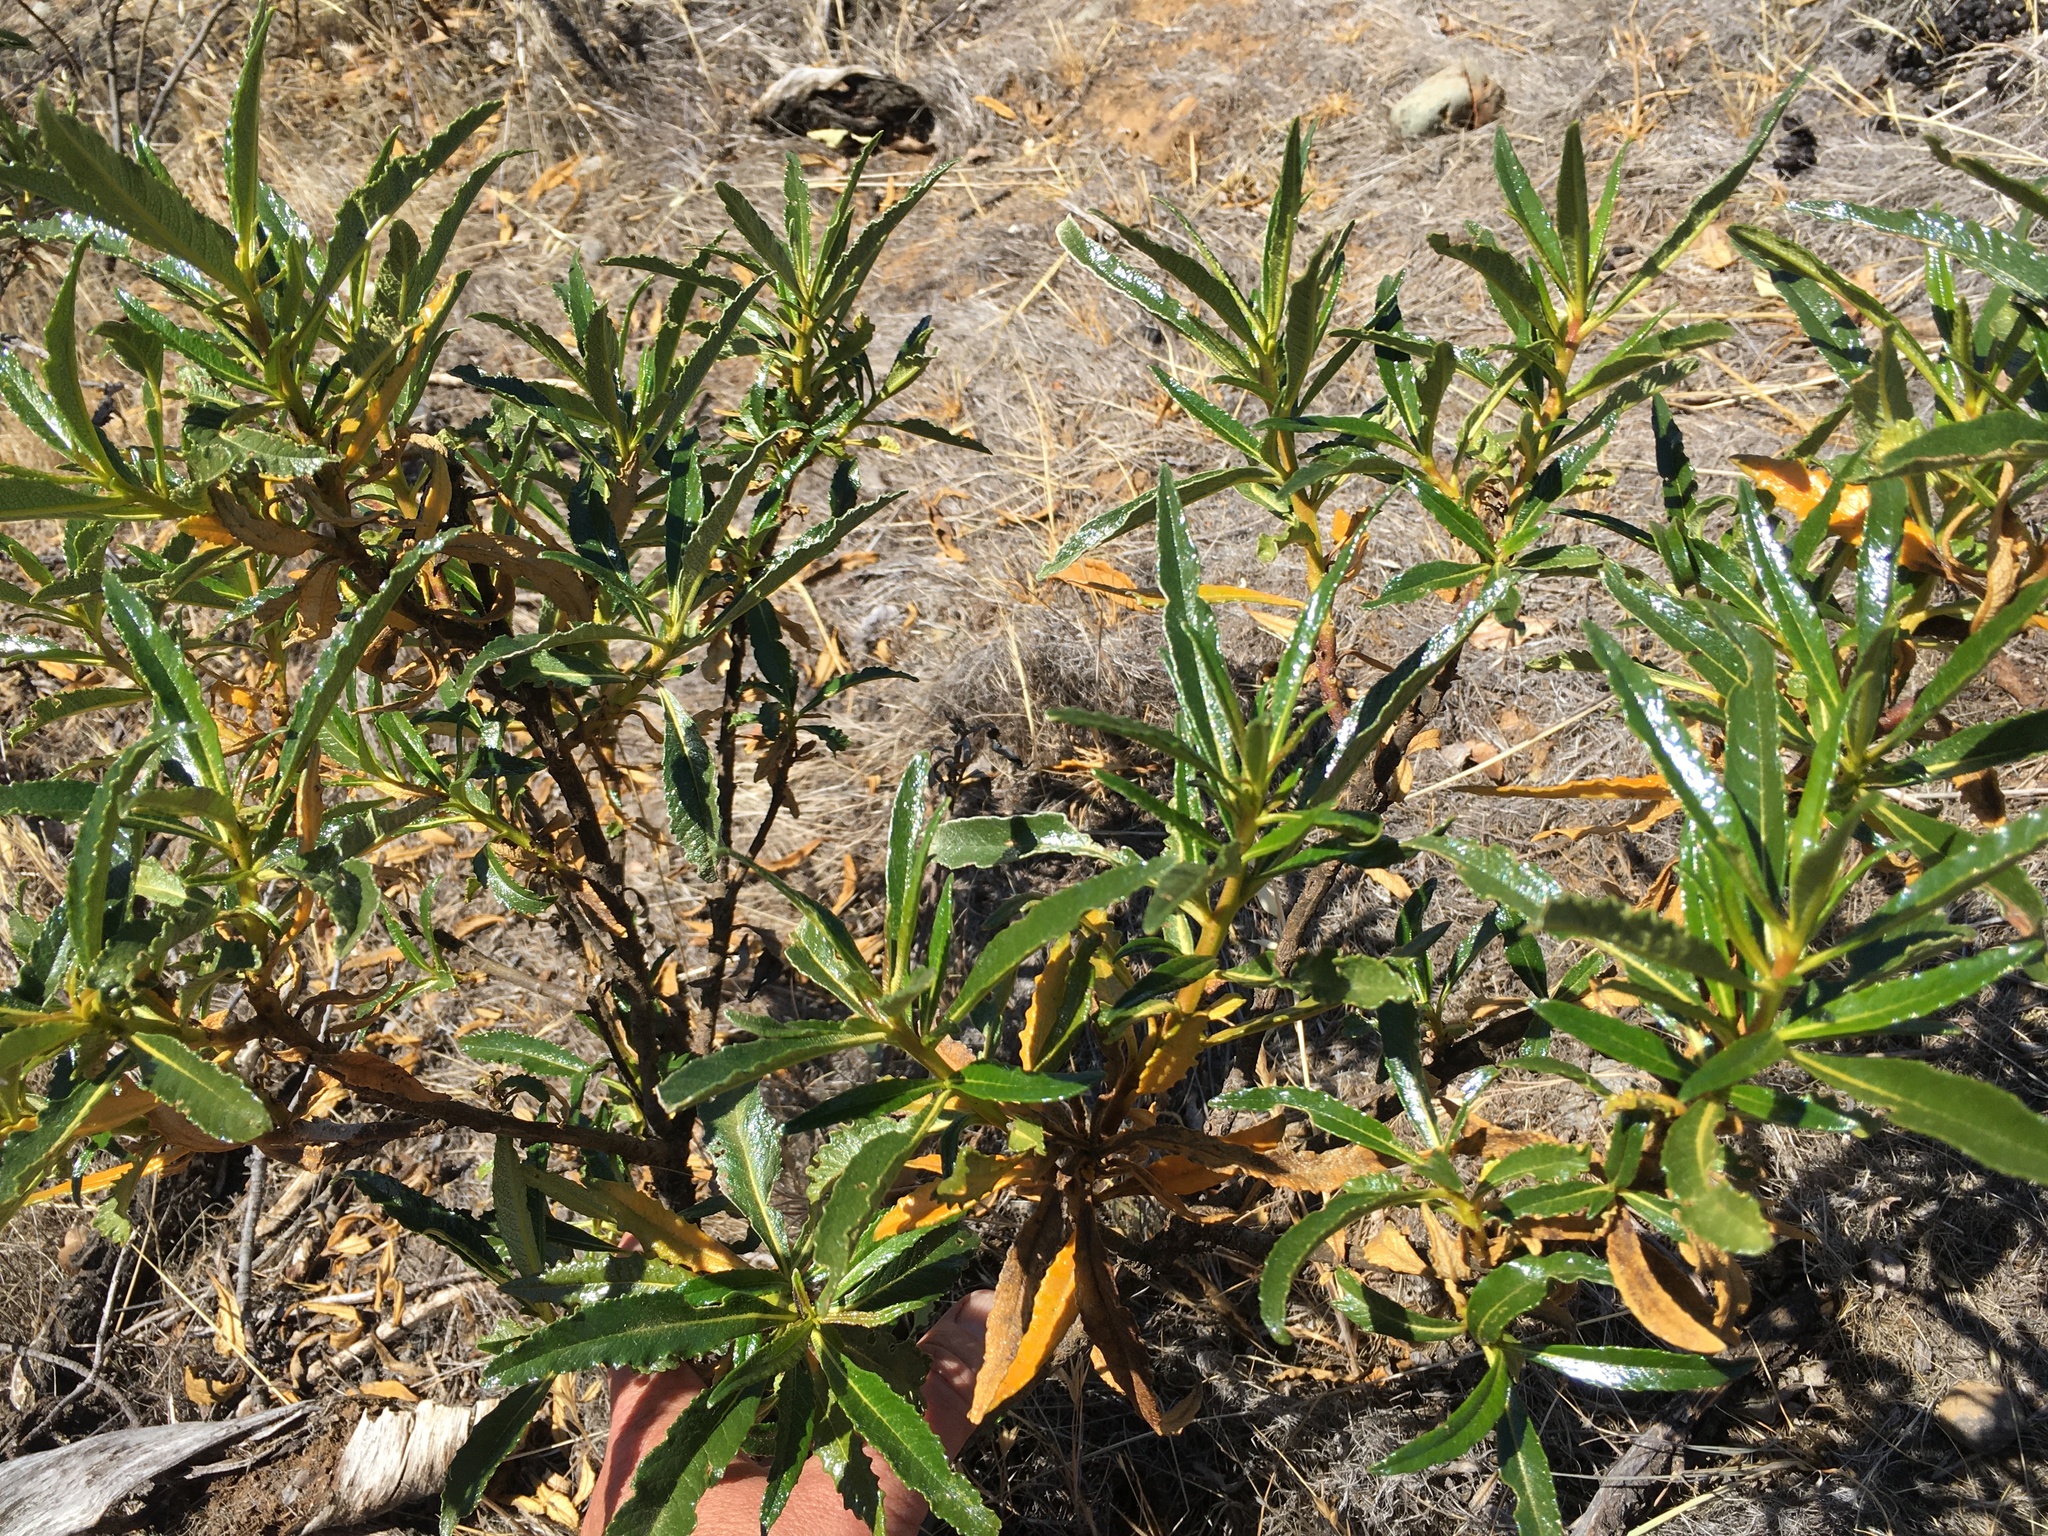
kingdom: Plantae
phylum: Tracheophyta
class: Magnoliopsida
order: Boraginales
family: Namaceae
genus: Eriodictyon
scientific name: Eriodictyon californicum
